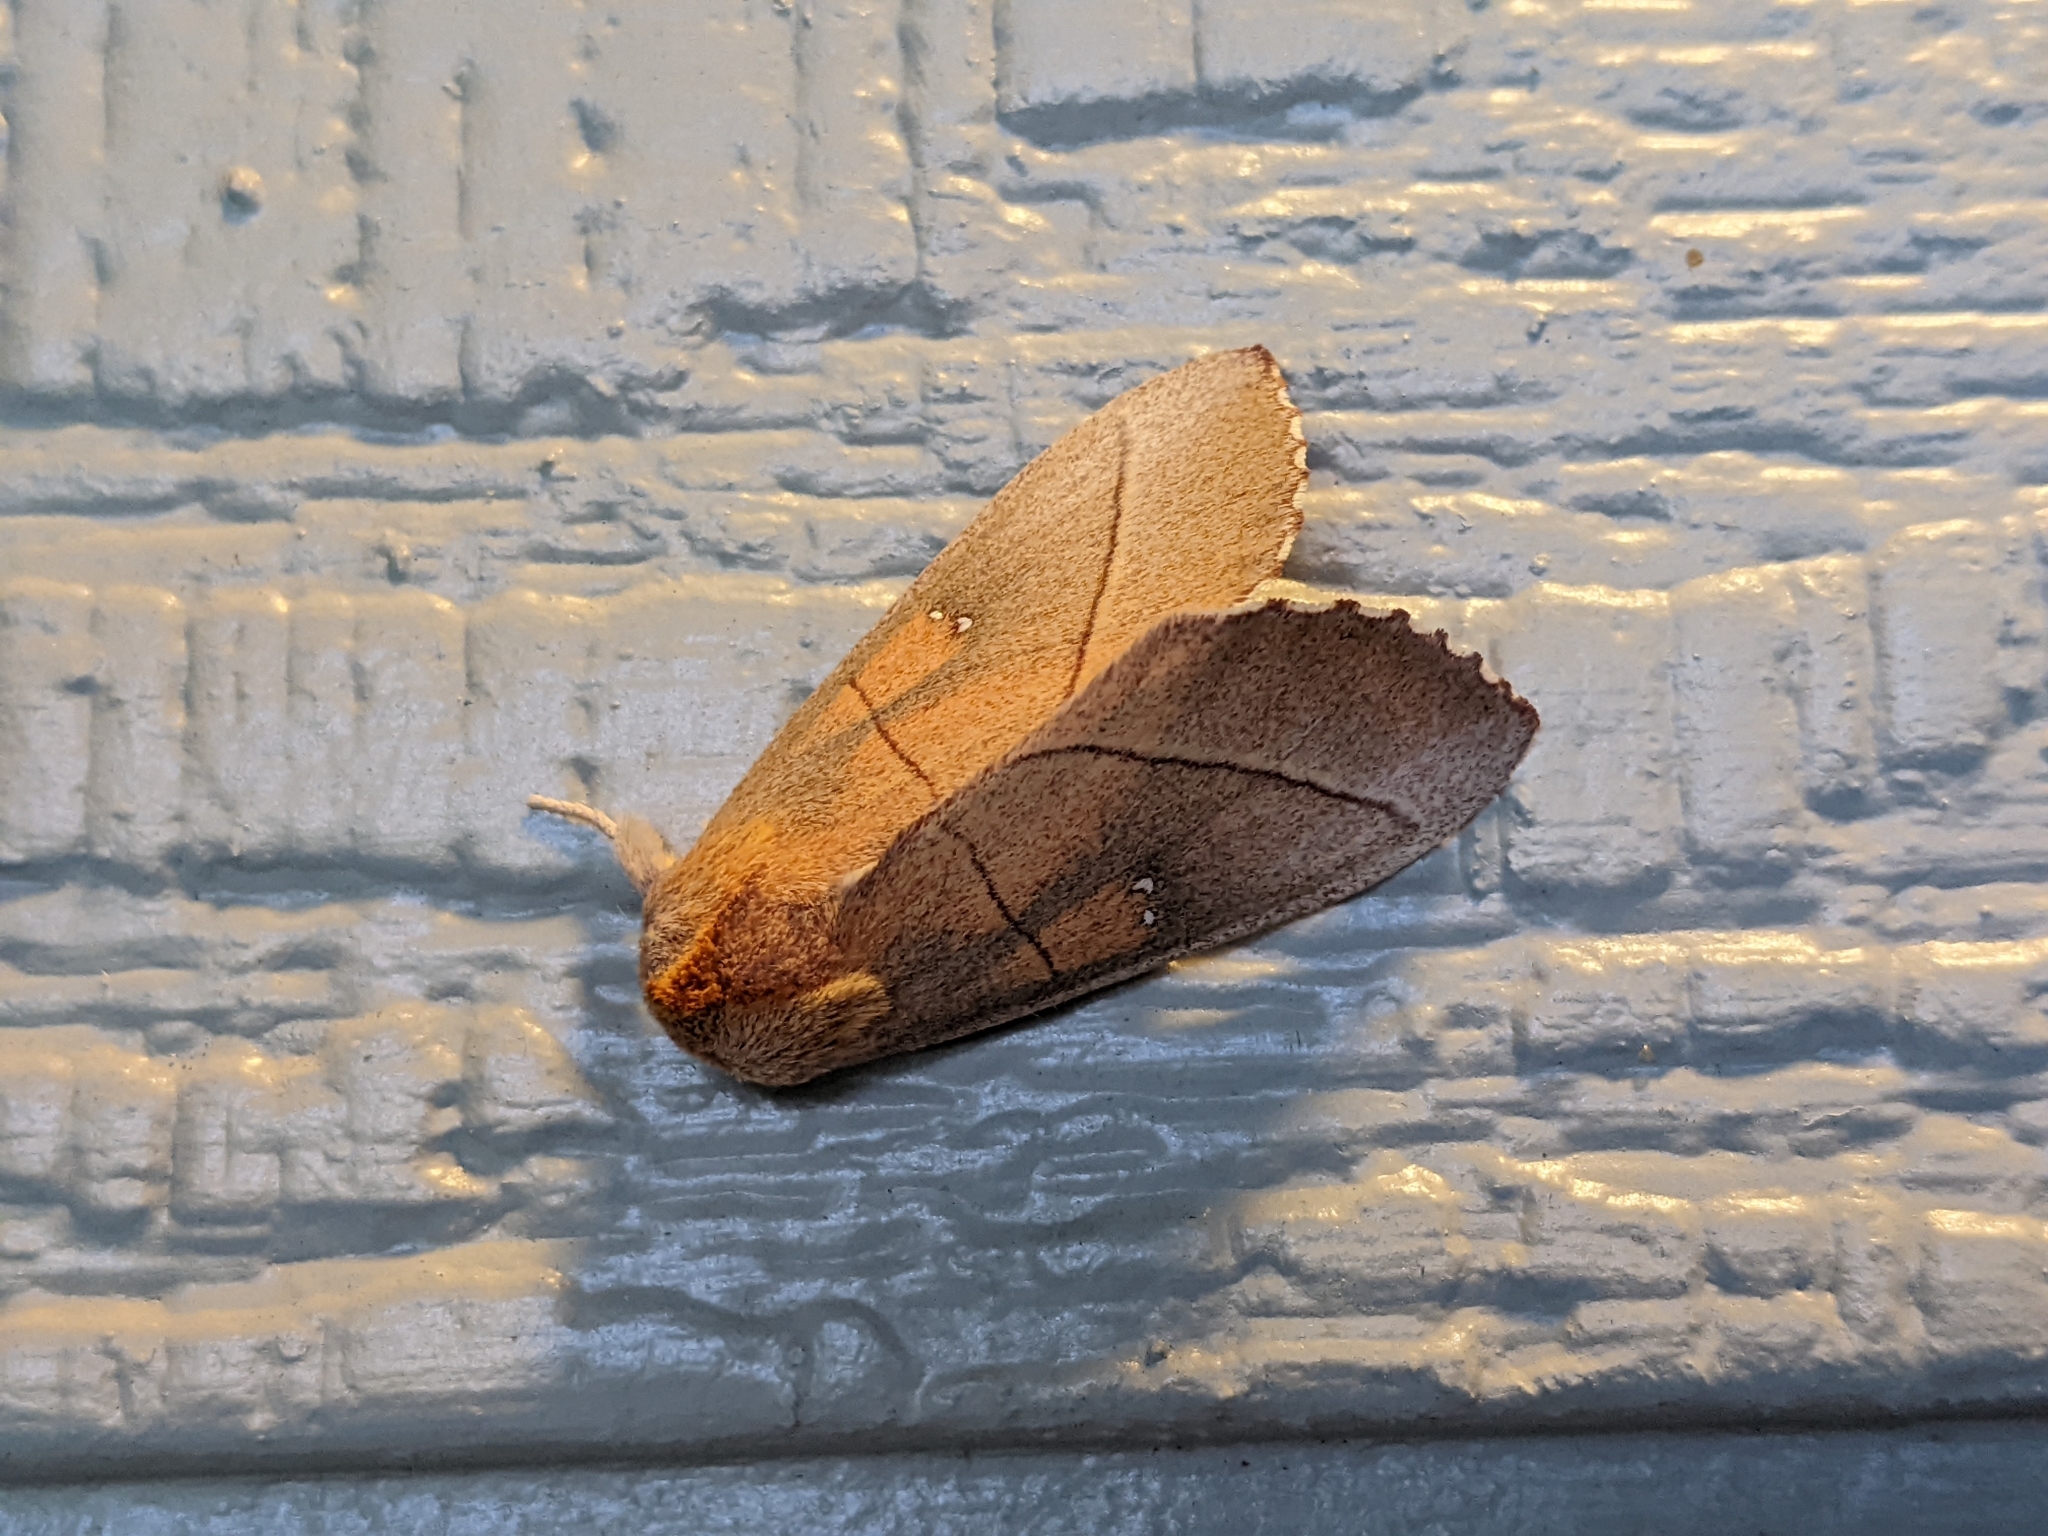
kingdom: Animalia
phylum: Arthropoda
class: Insecta
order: Lepidoptera
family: Notodontidae
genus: Nadata
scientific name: Nadata gibbosa
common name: White-dotted prominent
